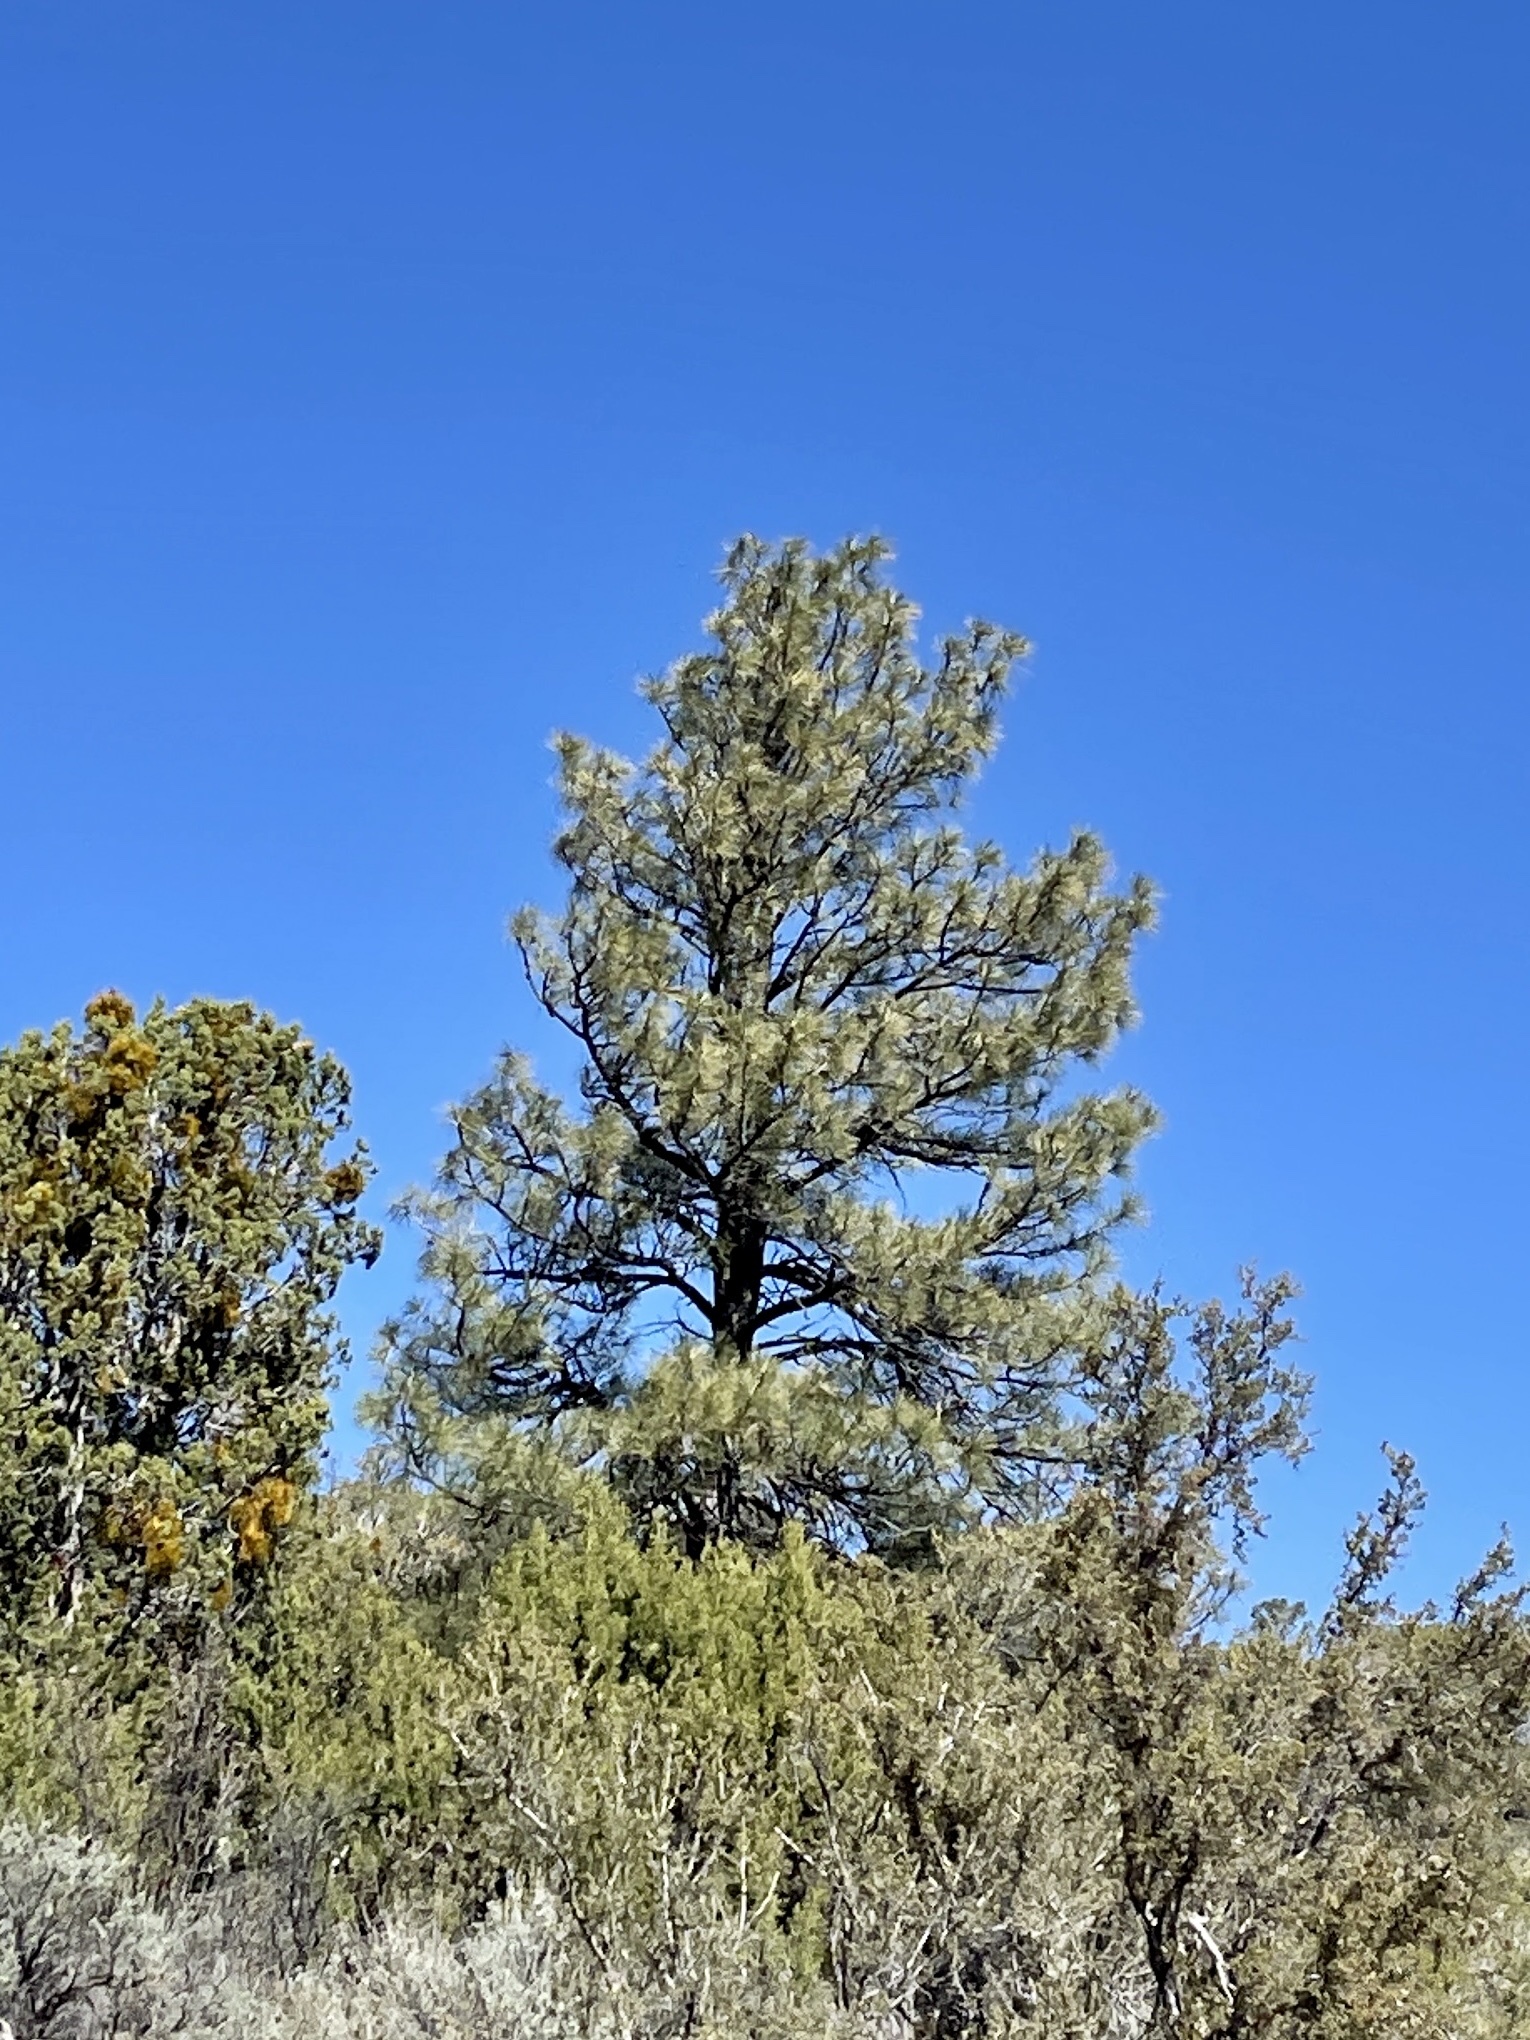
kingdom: Plantae
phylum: Tracheophyta
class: Pinopsida
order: Pinales
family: Pinaceae
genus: Pinus
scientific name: Pinus ponderosa
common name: Western yellow-pine
